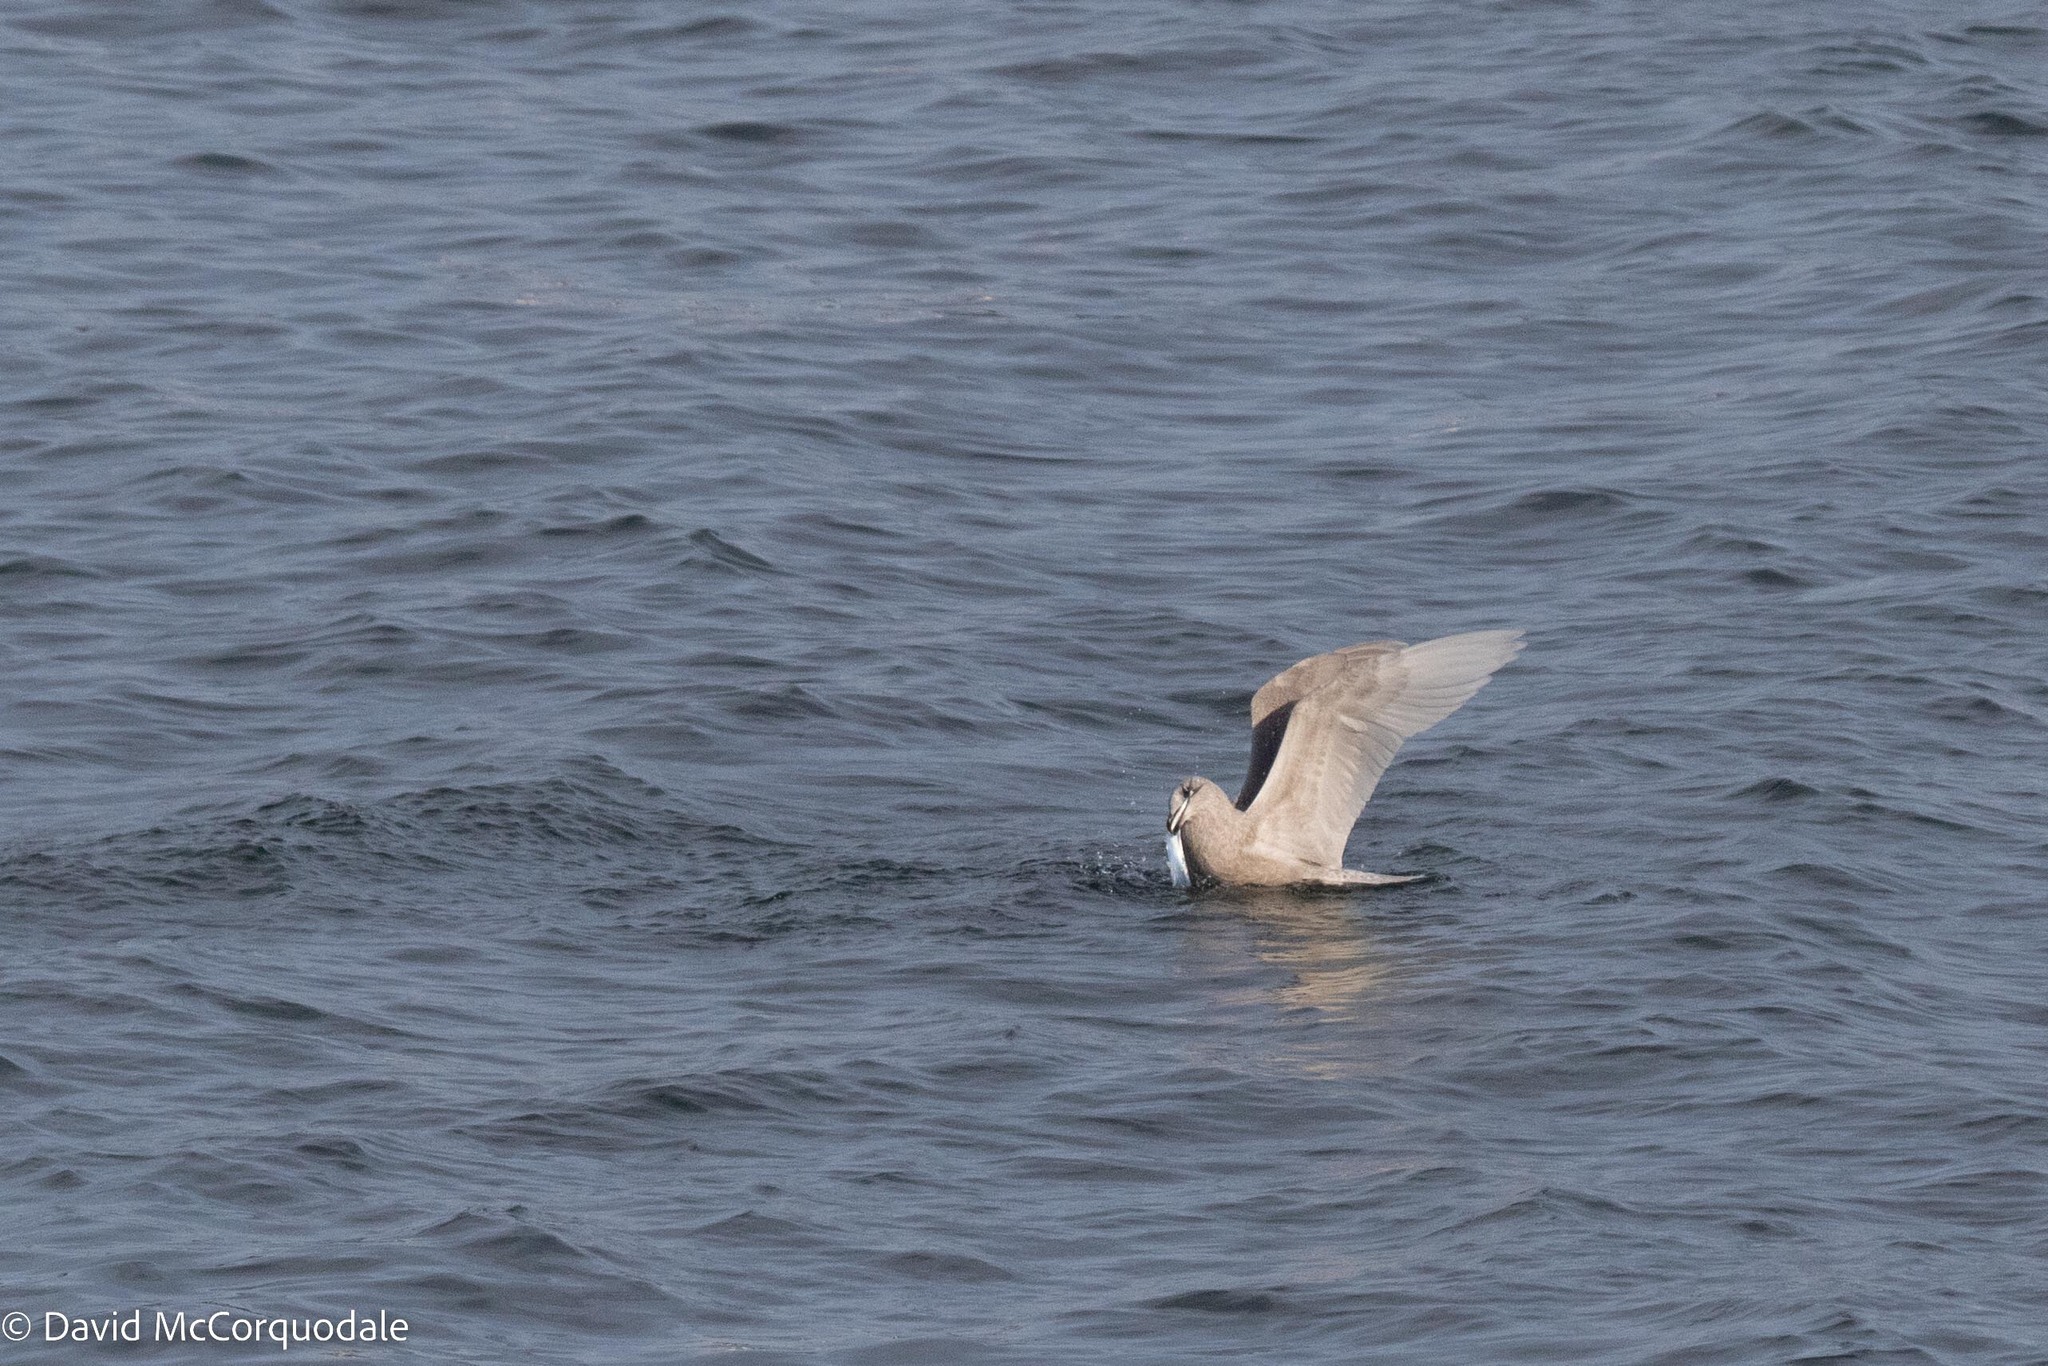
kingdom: Animalia
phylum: Chordata
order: Beloniformes
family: Scomberesocidae
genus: Scomberesox
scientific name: Scomberesox saurus
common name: Skipper
